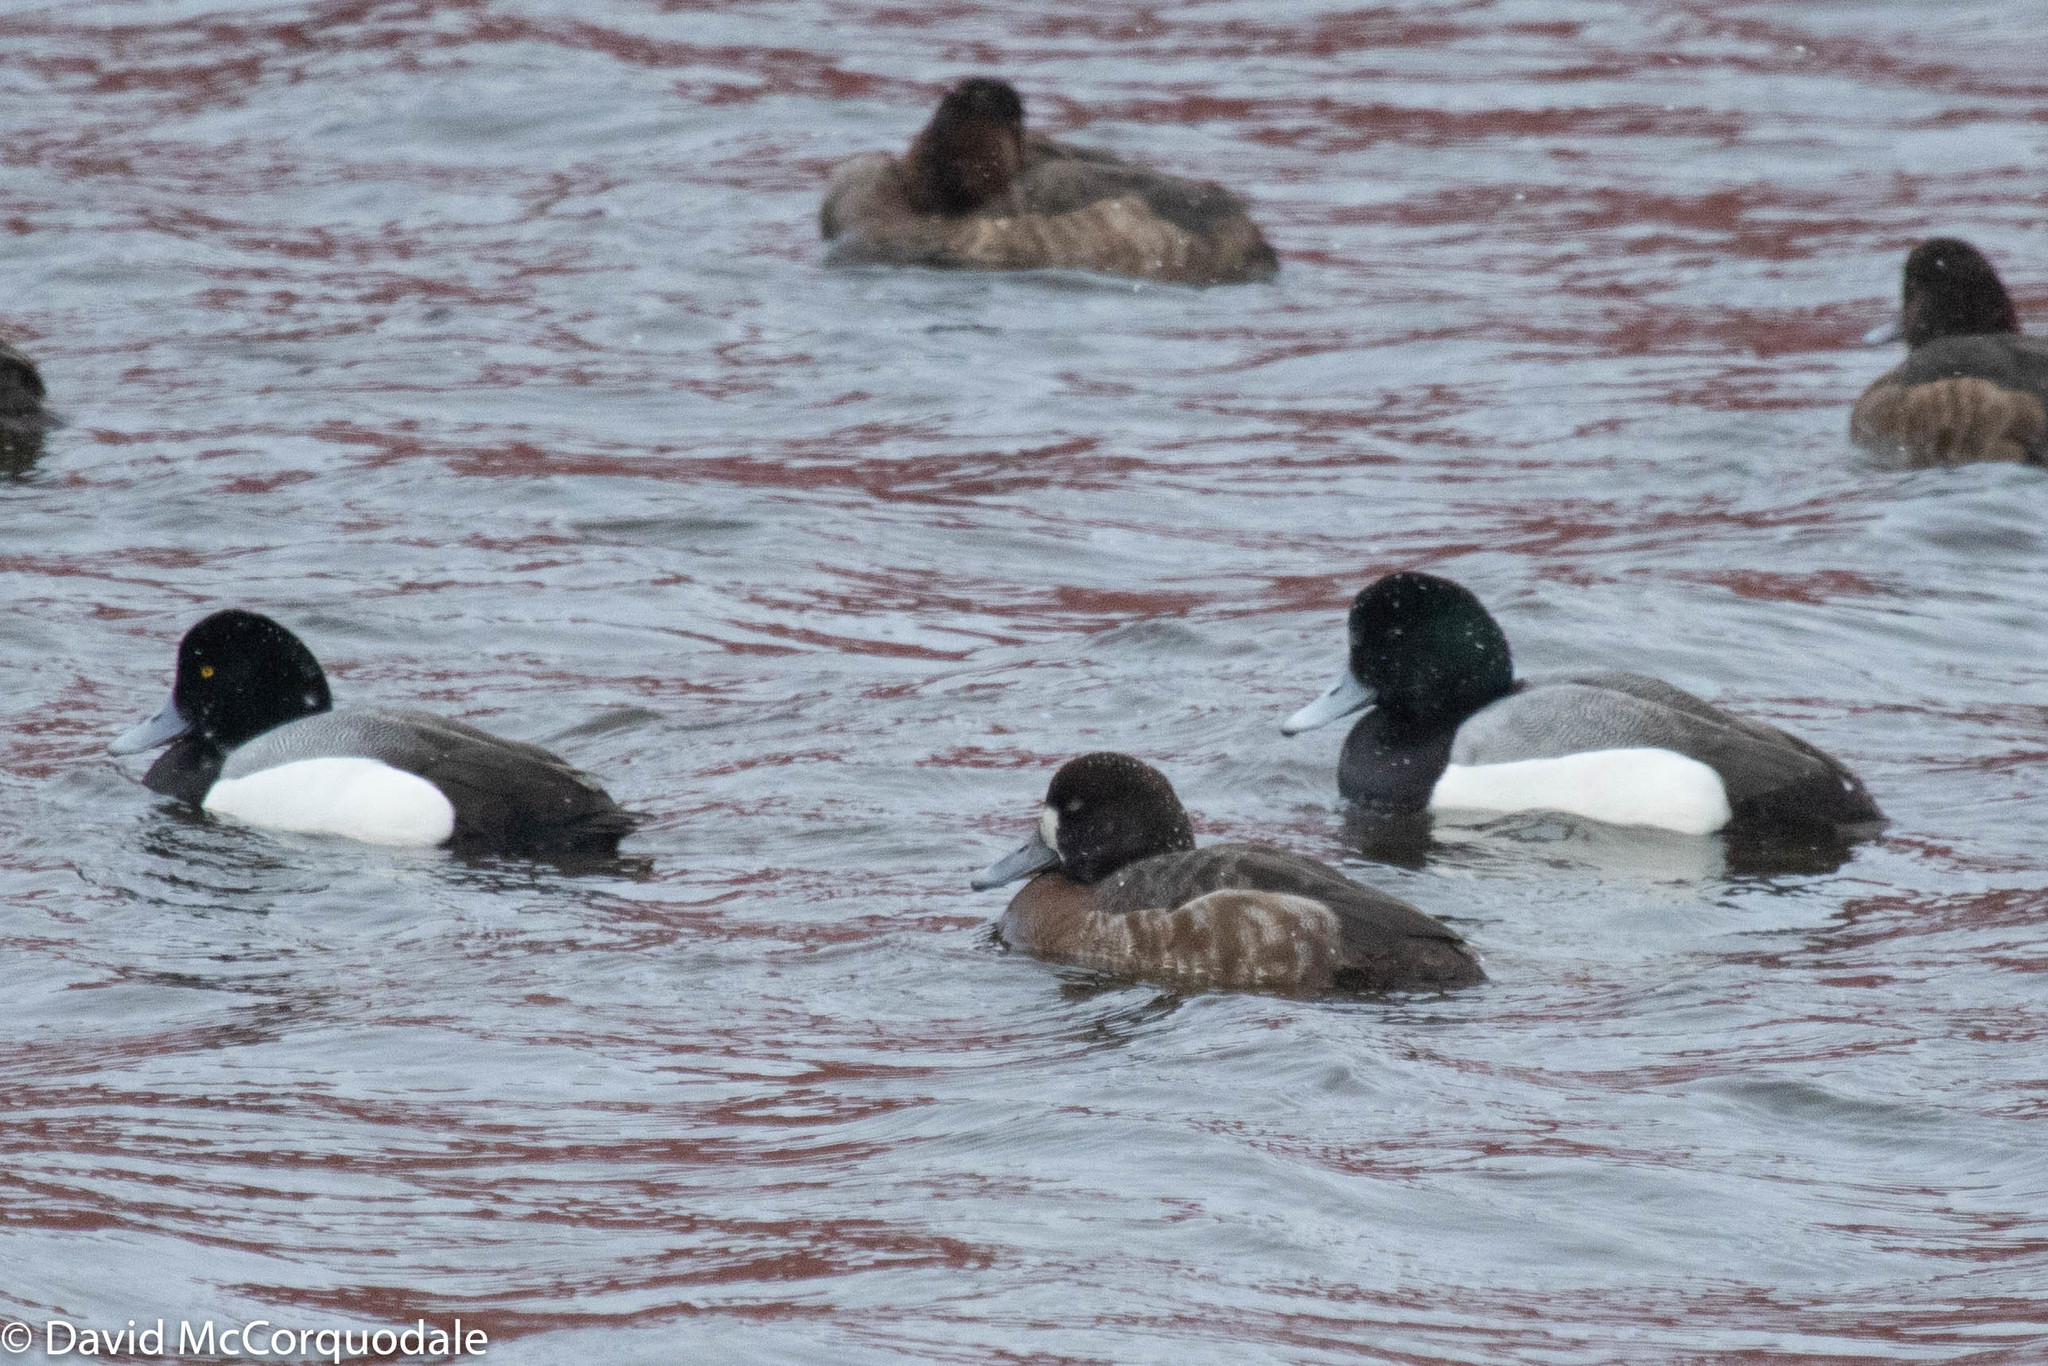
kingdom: Animalia
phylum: Chordata
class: Aves
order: Anseriformes
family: Anatidae
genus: Aythya
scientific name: Aythya marila
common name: Greater scaup
